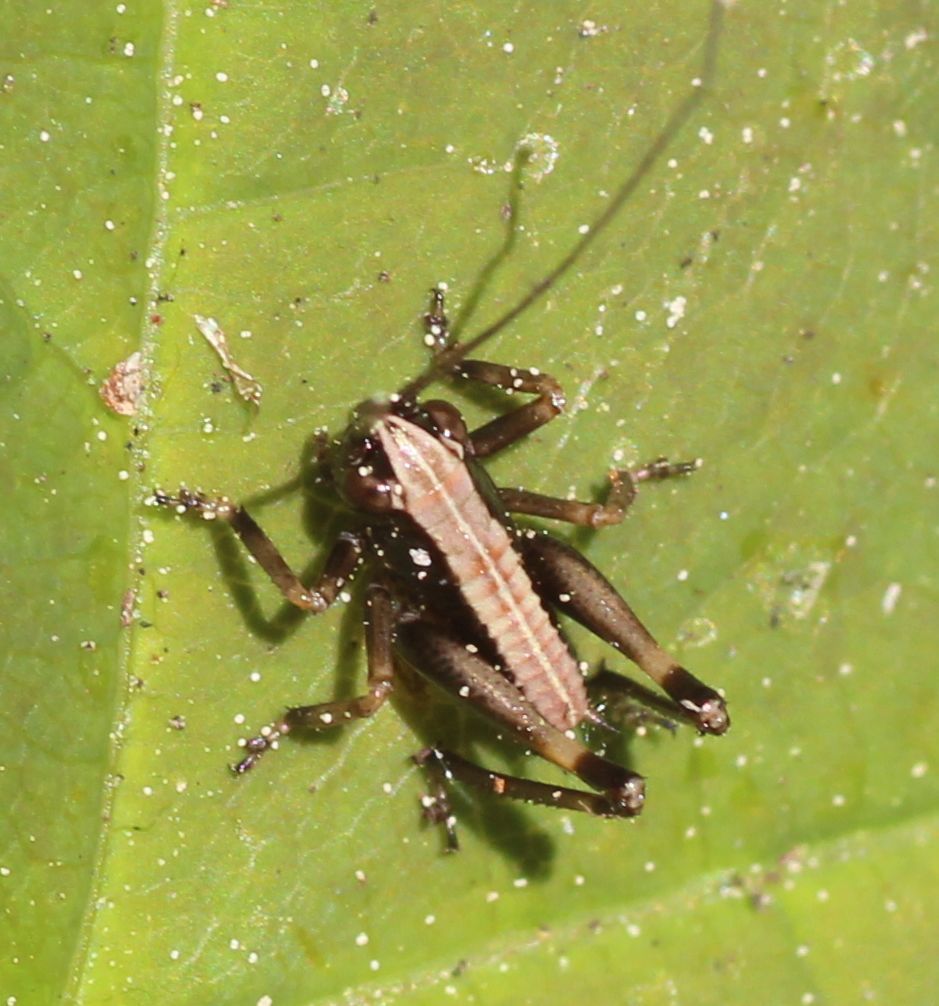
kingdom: Animalia
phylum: Arthropoda
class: Insecta
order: Orthoptera
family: Tettigoniidae
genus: Pholidoptera
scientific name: Pholidoptera griseoaptera
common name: Dark bush-cricket
